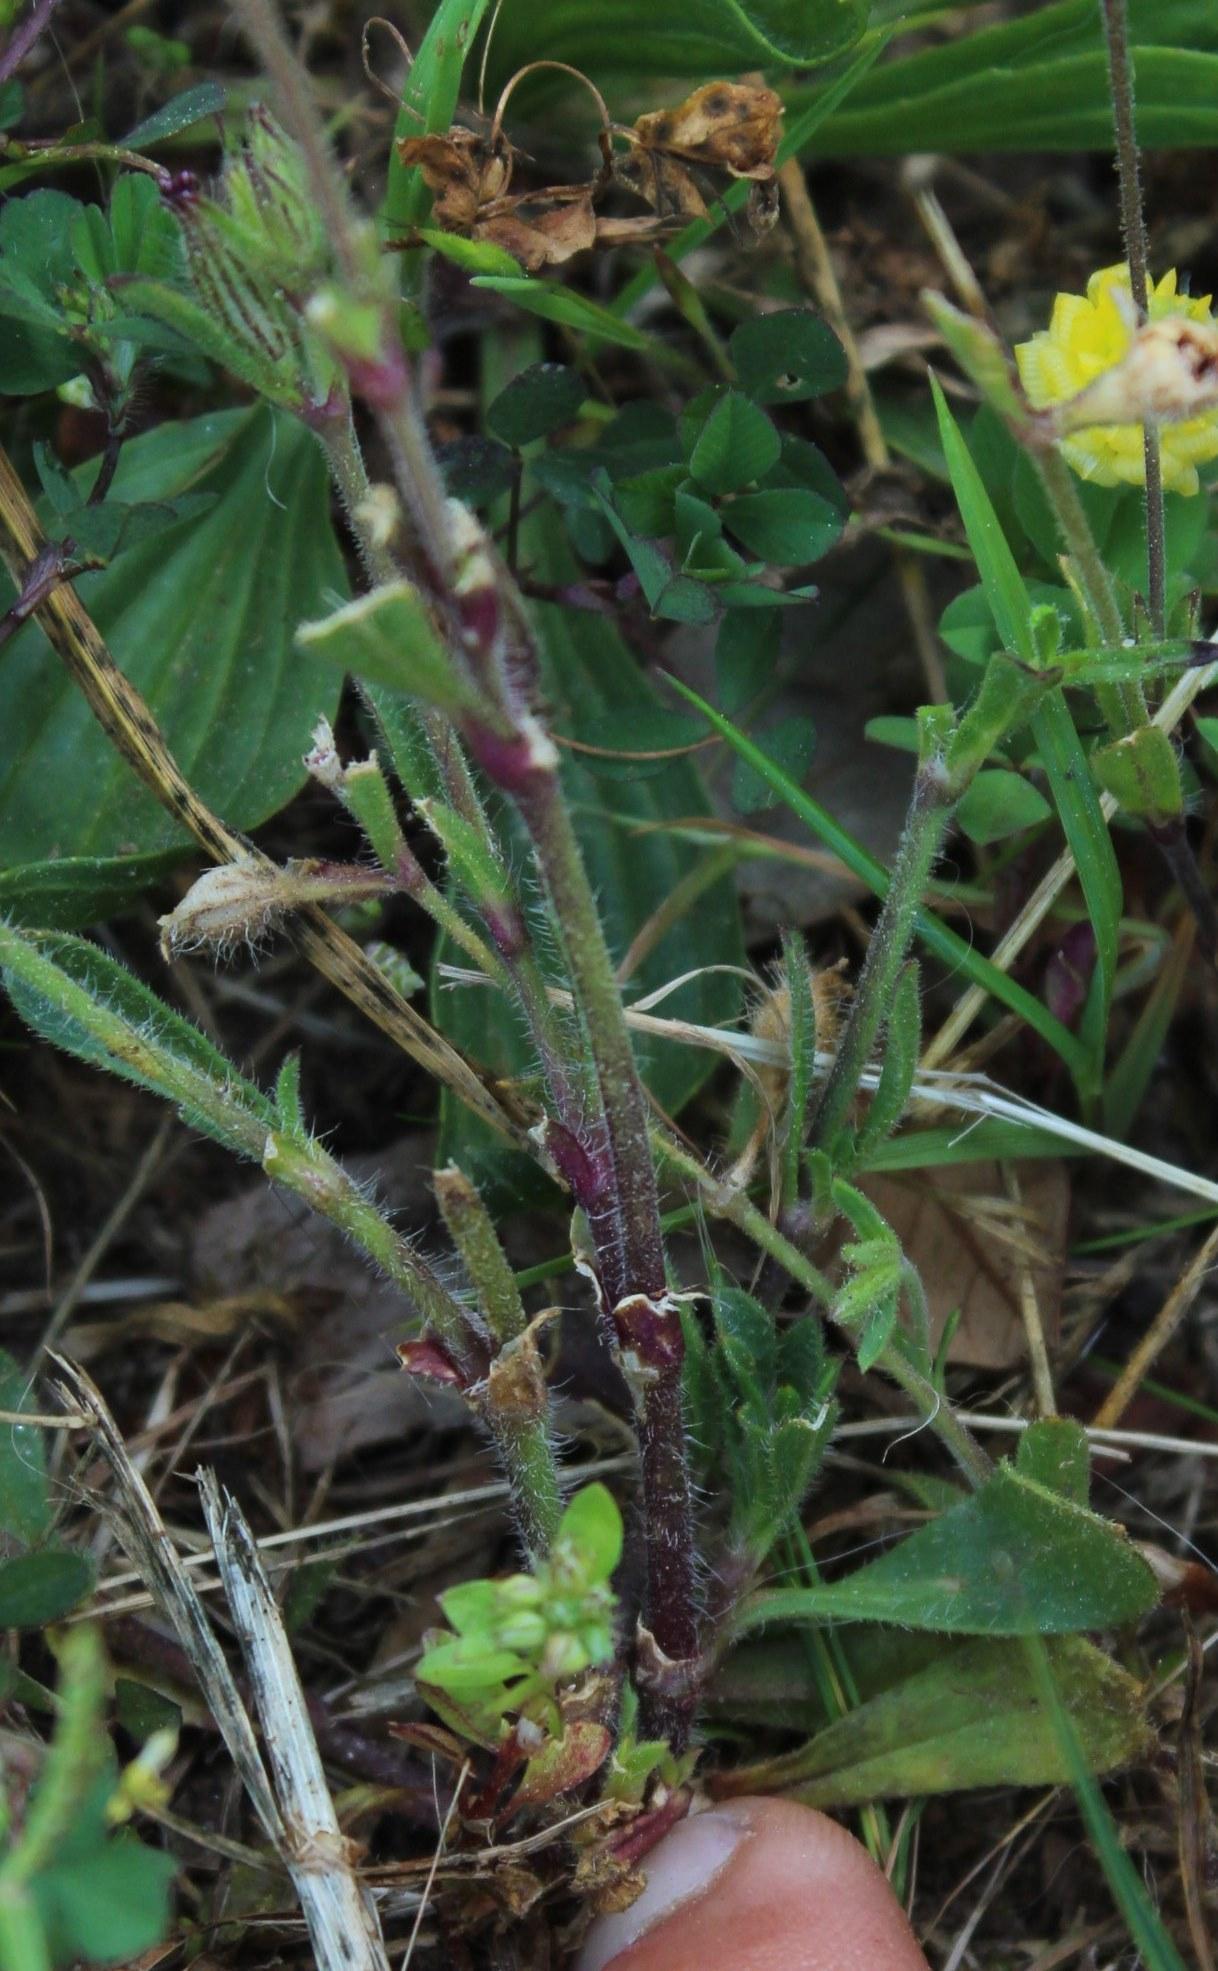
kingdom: Plantae
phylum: Tracheophyta
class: Magnoliopsida
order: Caryophyllales
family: Caryophyllaceae
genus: Silene
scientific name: Silene gallica
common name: Small-flowered catchfly
